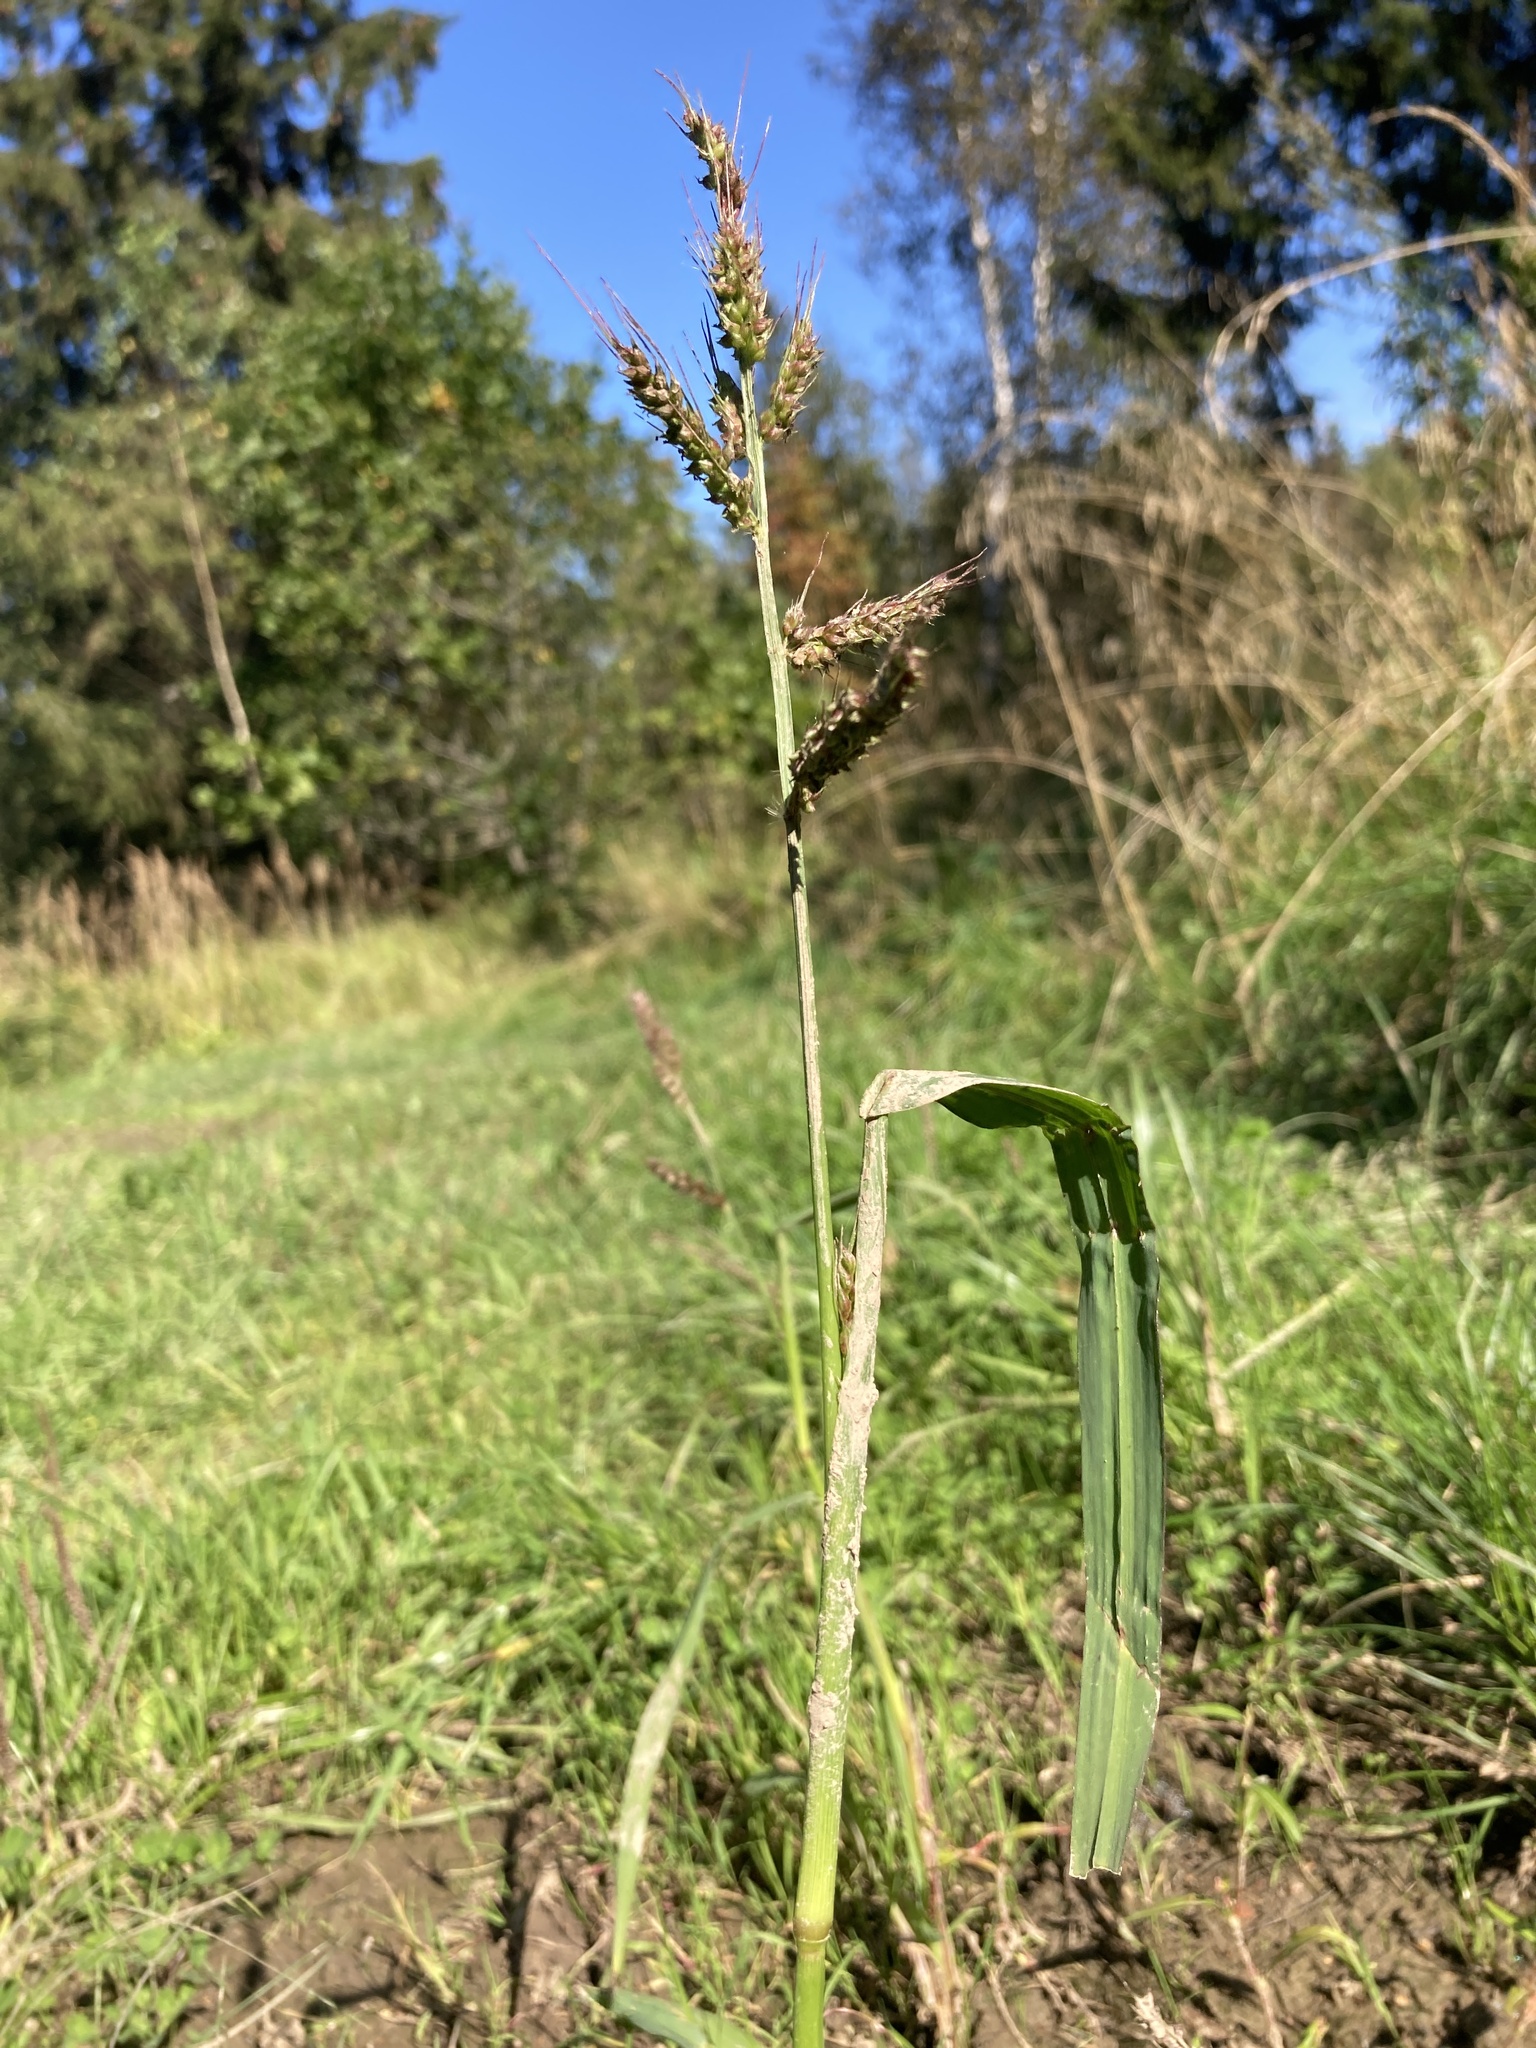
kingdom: Plantae
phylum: Tracheophyta
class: Liliopsida
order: Poales
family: Poaceae
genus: Echinochloa
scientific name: Echinochloa crus-galli
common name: Cockspur
